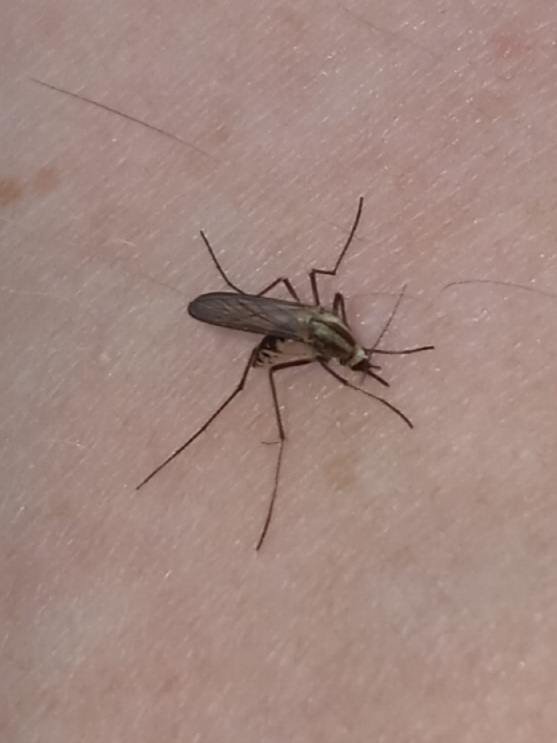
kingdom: Animalia
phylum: Arthropoda
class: Insecta
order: Diptera
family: Culicidae
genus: Aedes
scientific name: Aedes trivittatus
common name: Plains floodwater mosquito
